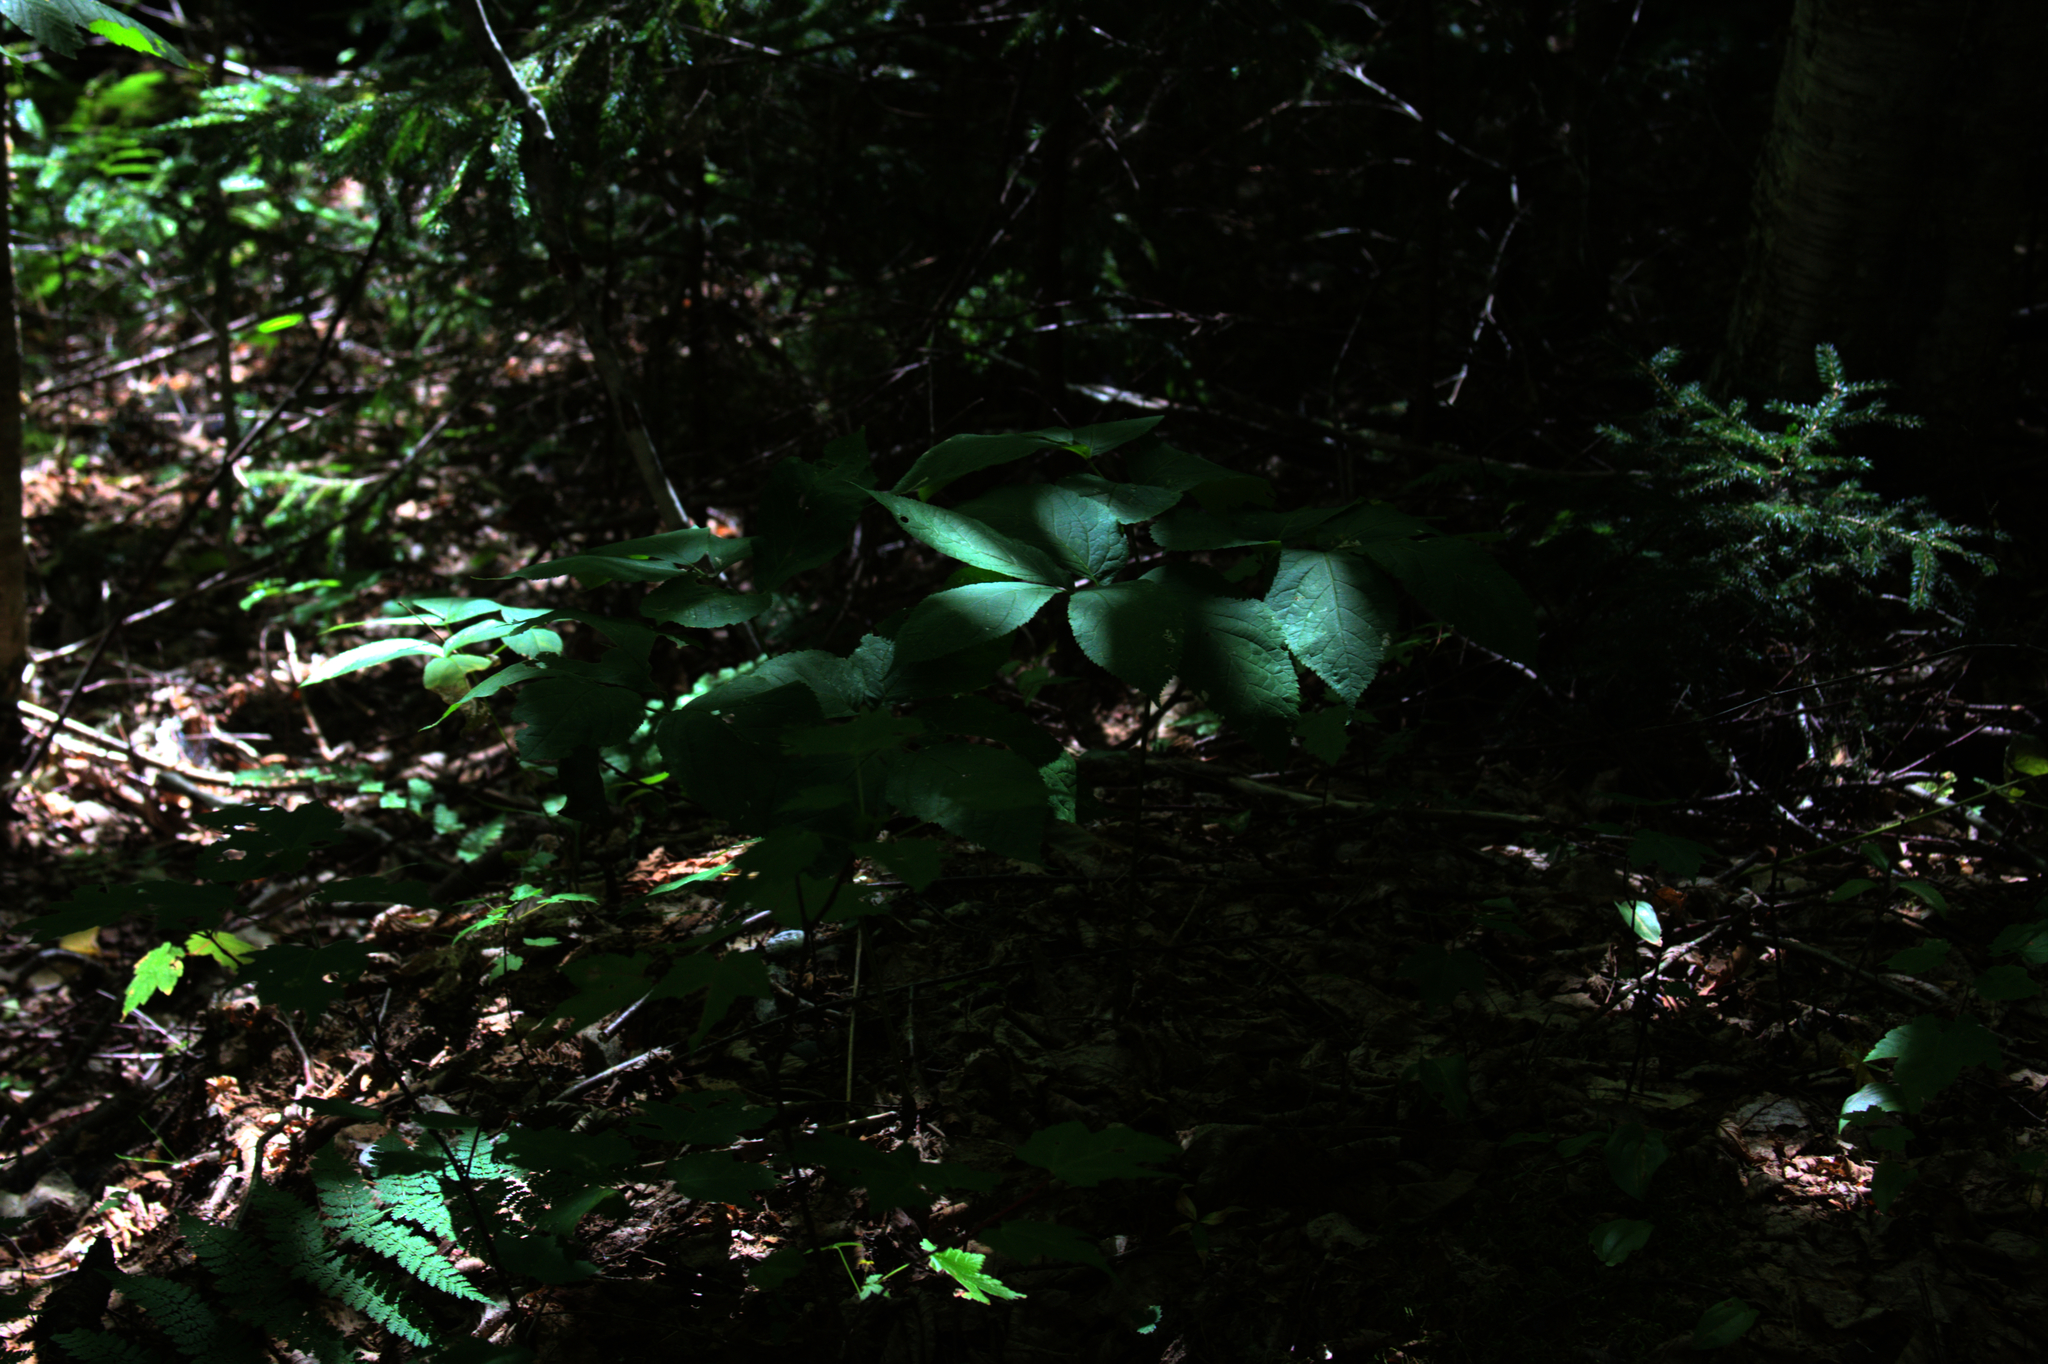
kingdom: Plantae
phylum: Tracheophyta
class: Magnoliopsida
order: Apiales
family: Araliaceae
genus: Aralia
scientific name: Aralia nudicaulis
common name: Wild sarsaparilla
